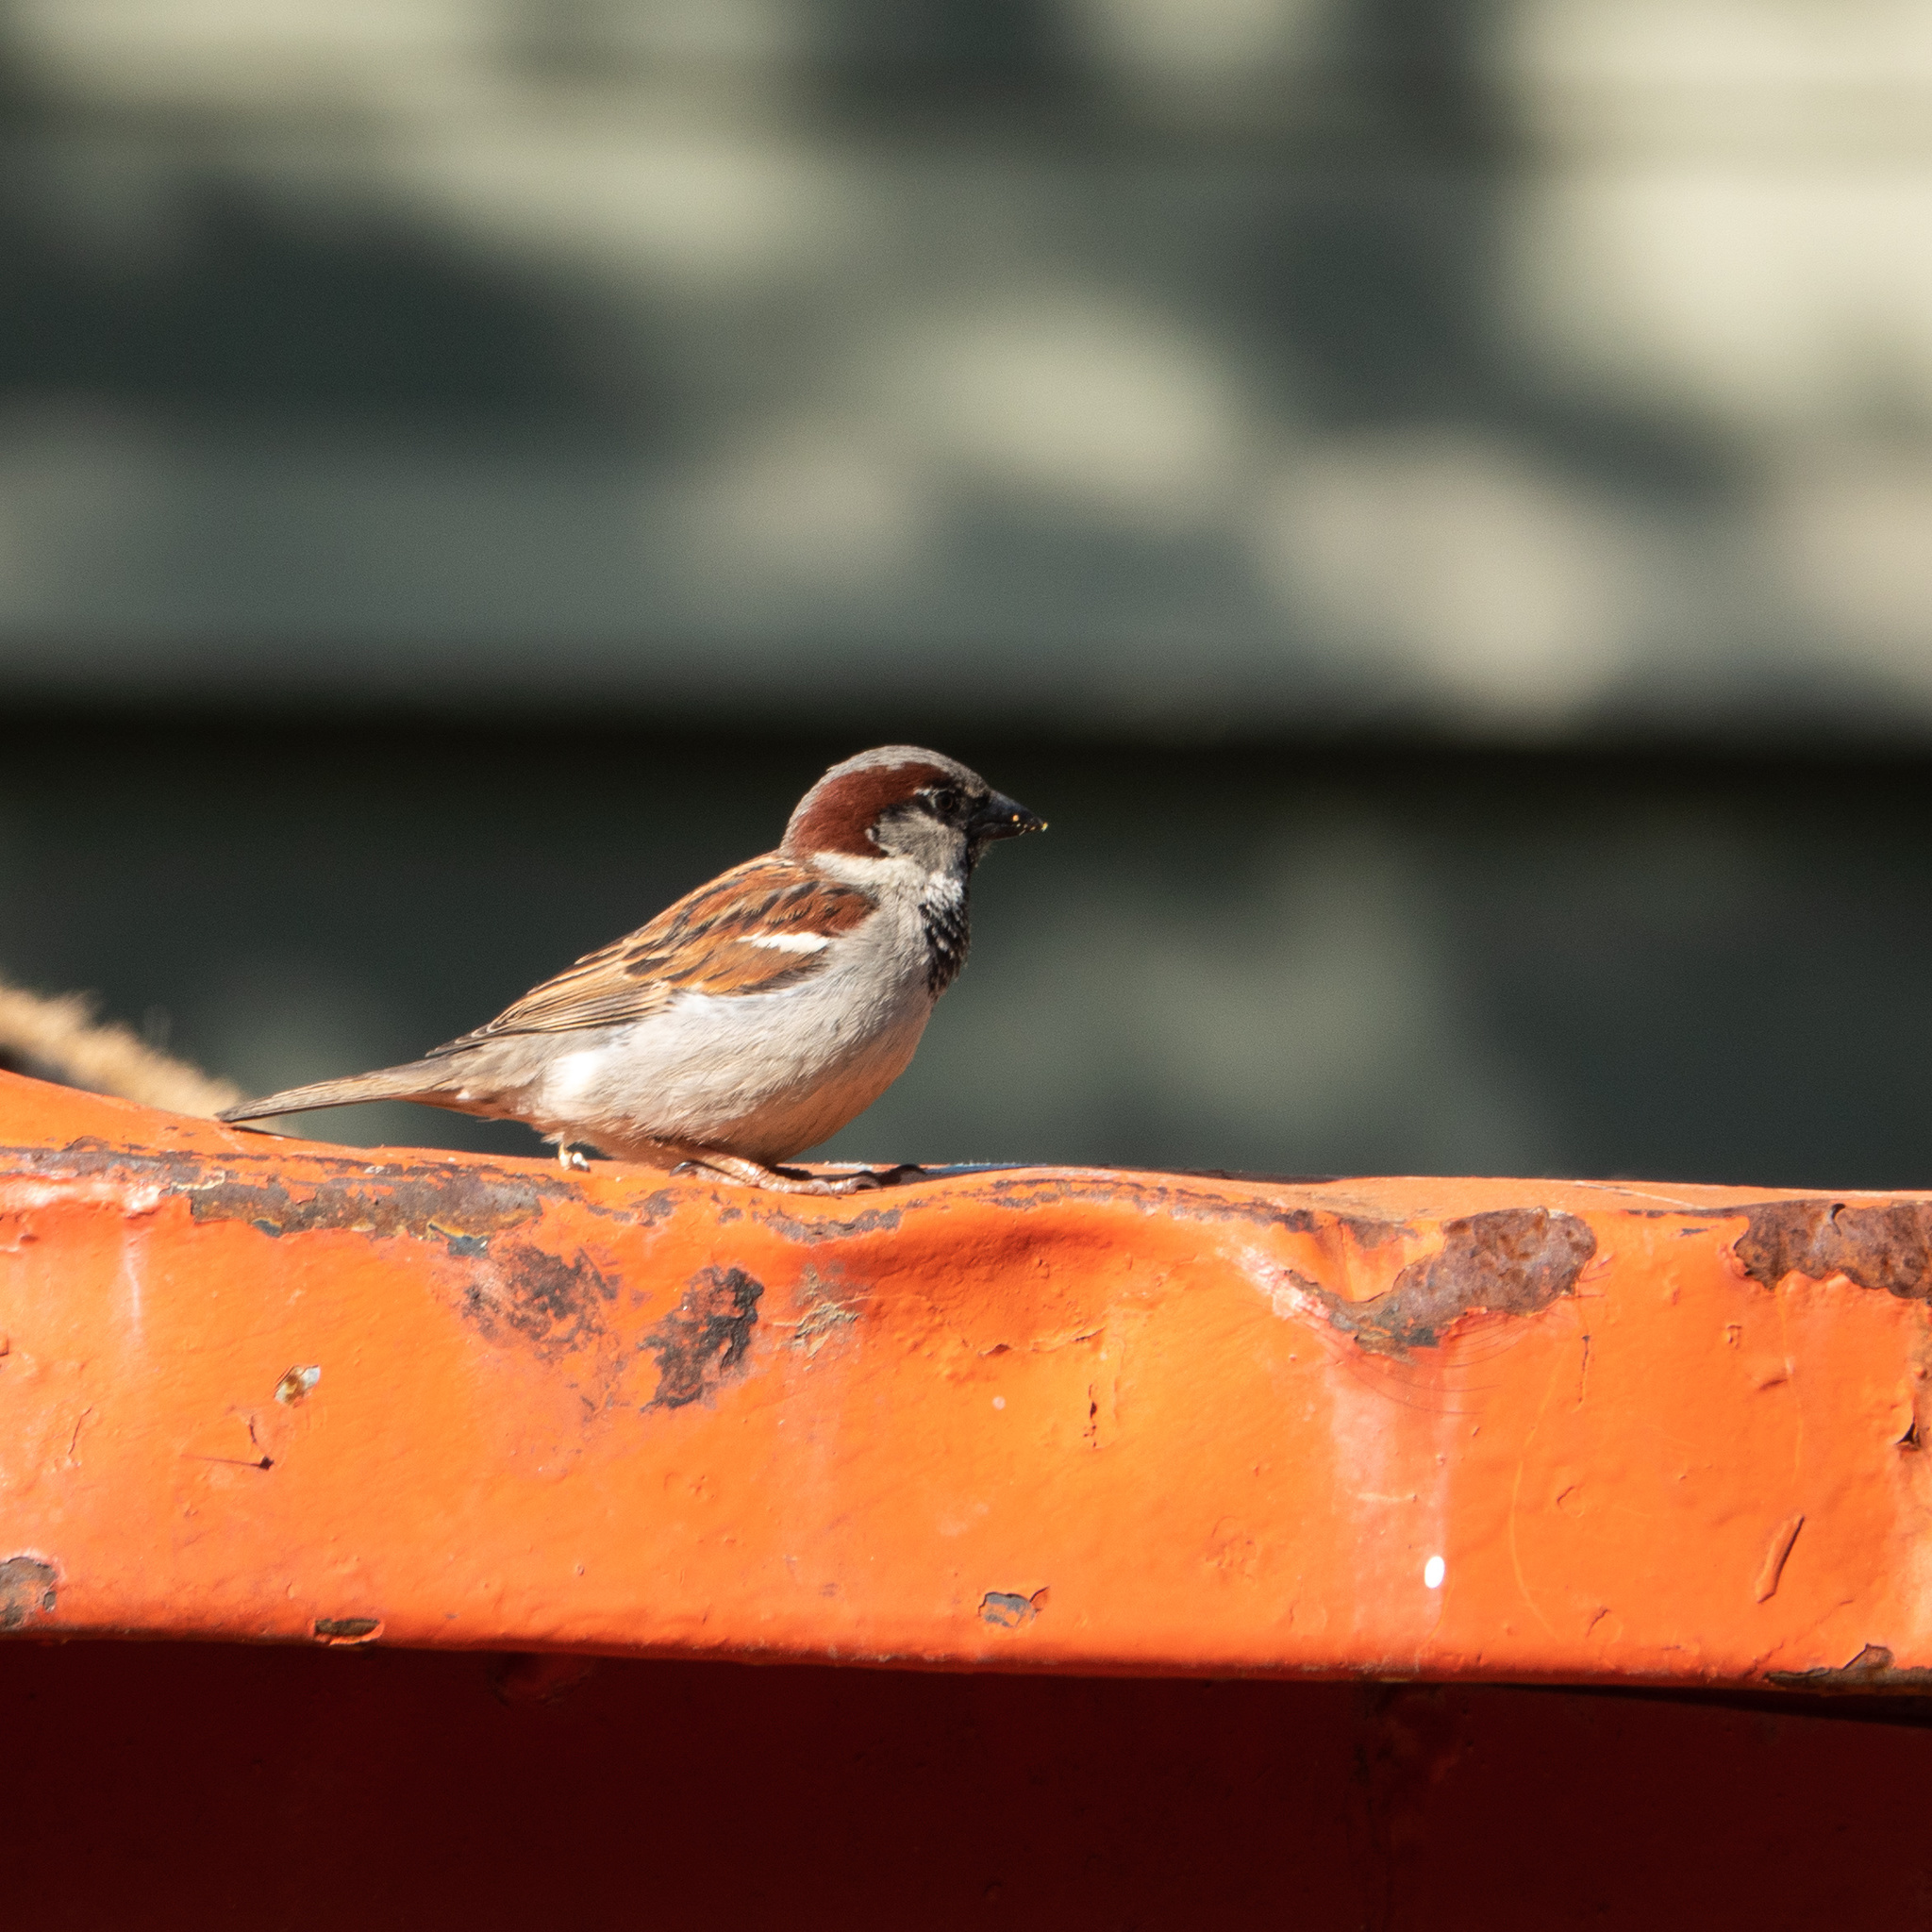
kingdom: Animalia
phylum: Chordata
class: Aves
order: Passeriformes
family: Passeridae
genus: Passer
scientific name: Passer domesticus
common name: House sparrow
